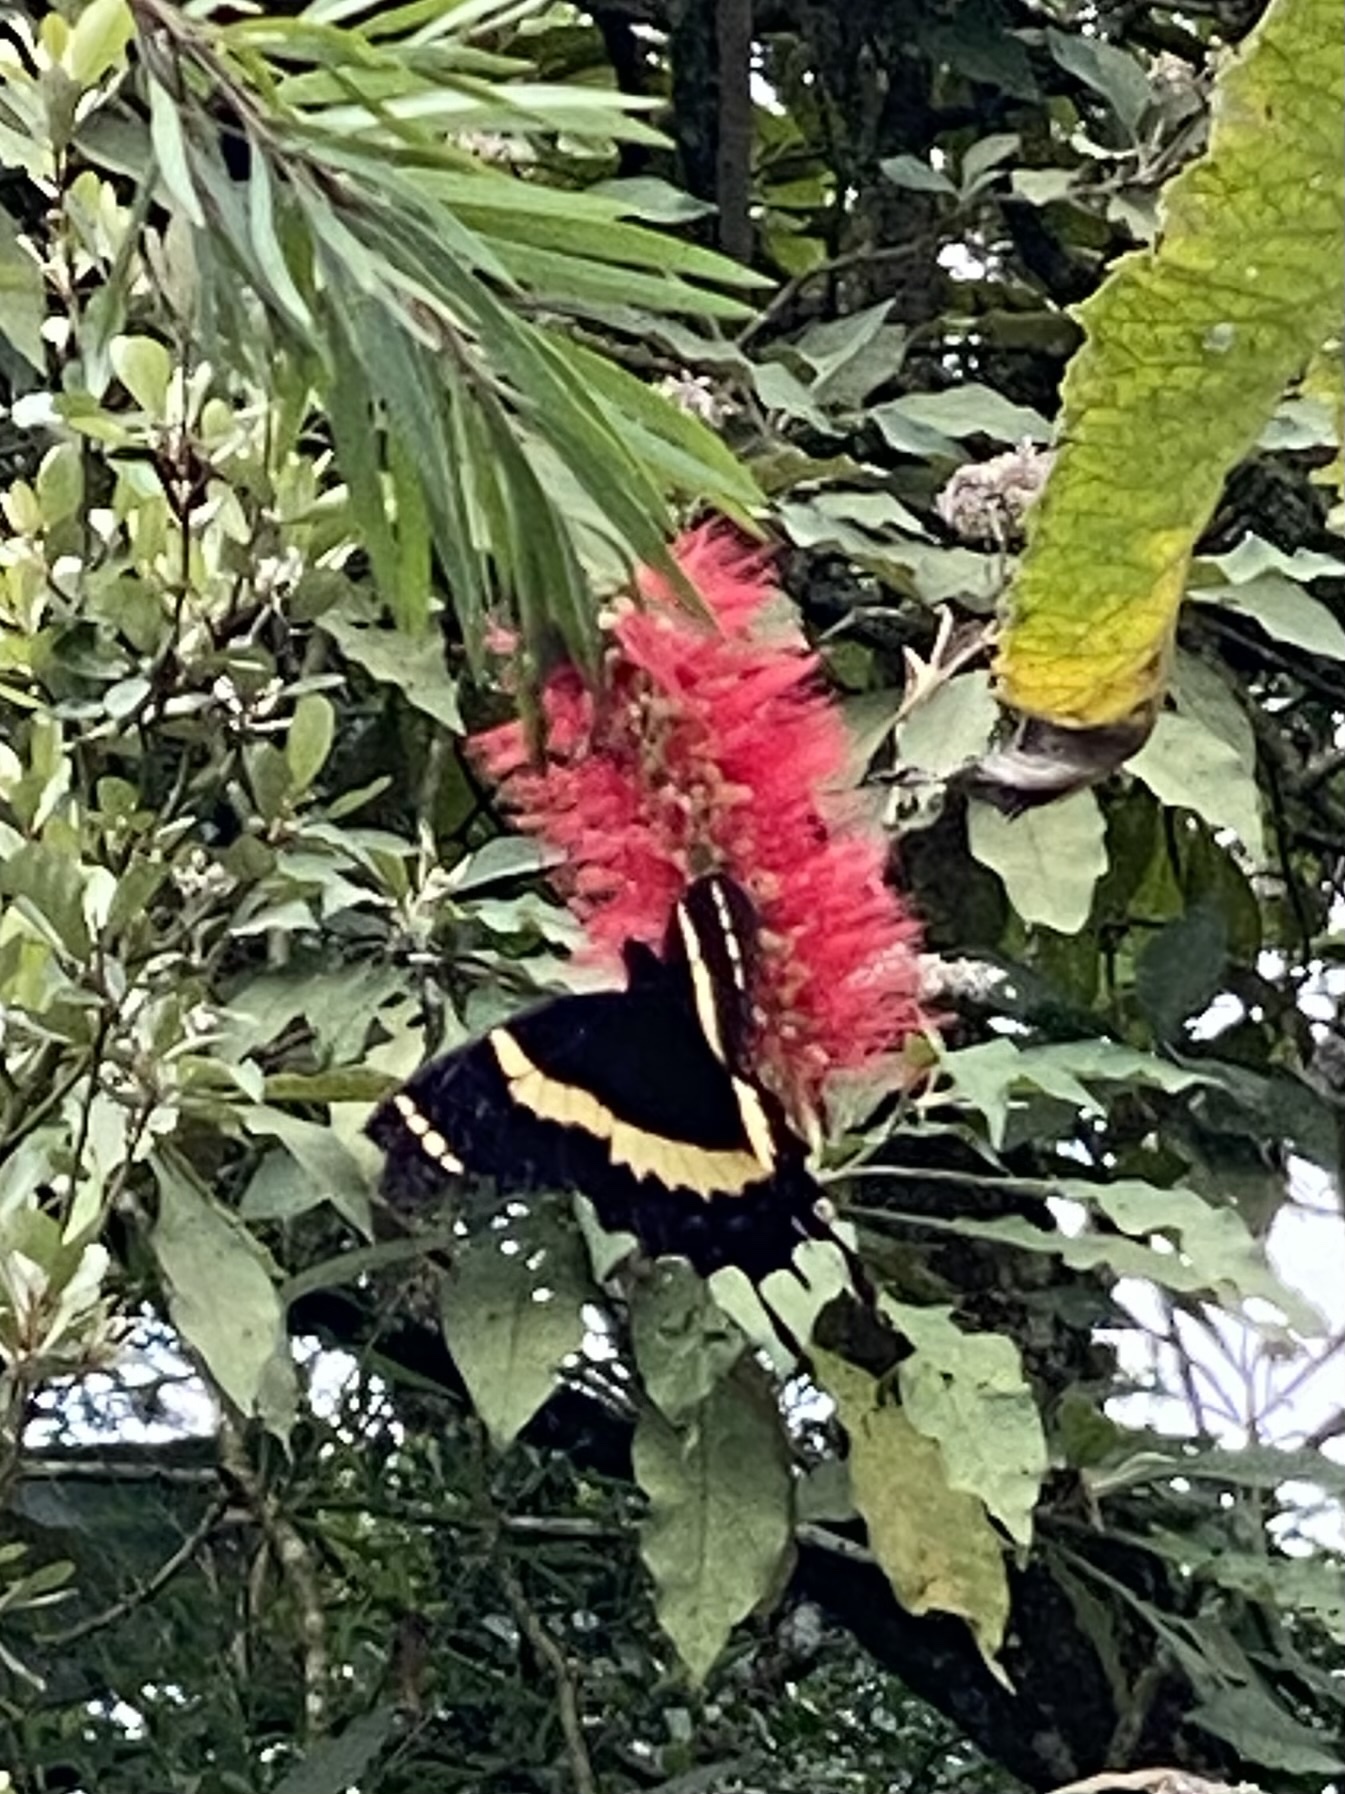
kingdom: Animalia
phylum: Arthropoda
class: Insecta
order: Lepidoptera
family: Papilionidae
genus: Papilio
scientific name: Papilio garamas
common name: Magnificent swallowtail
